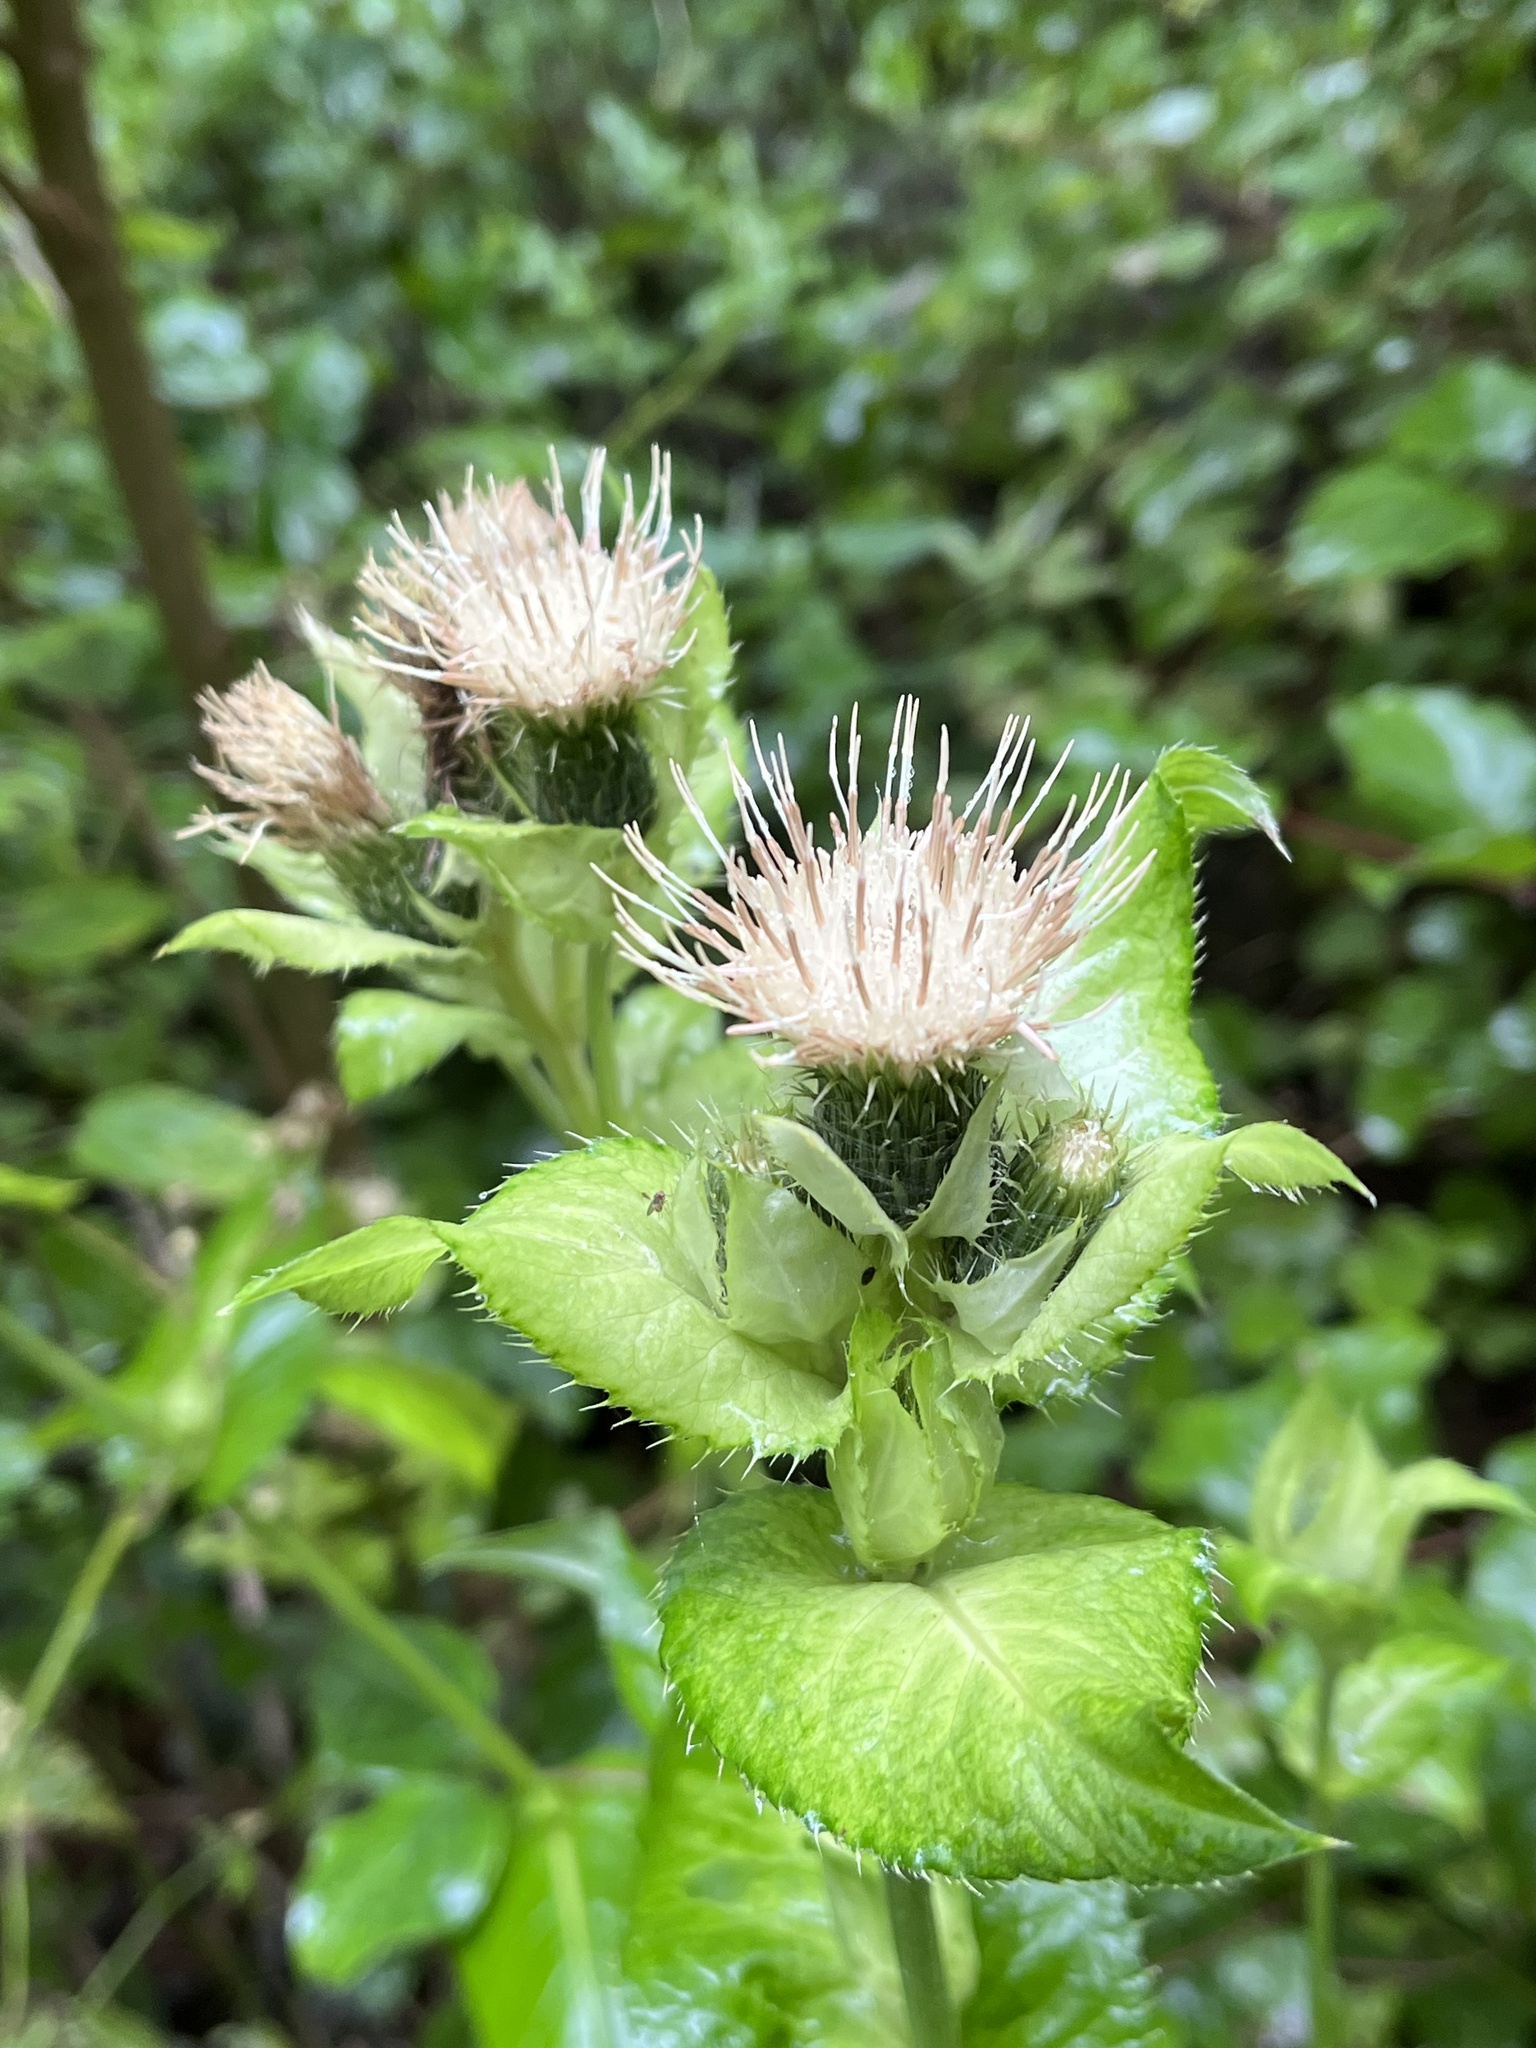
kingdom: Plantae
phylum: Tracheophyta
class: Magnoliopsida
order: Asterales
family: Asteraceae
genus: Cirsium
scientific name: Cirsium oleraceum
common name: Cabbage thistle
